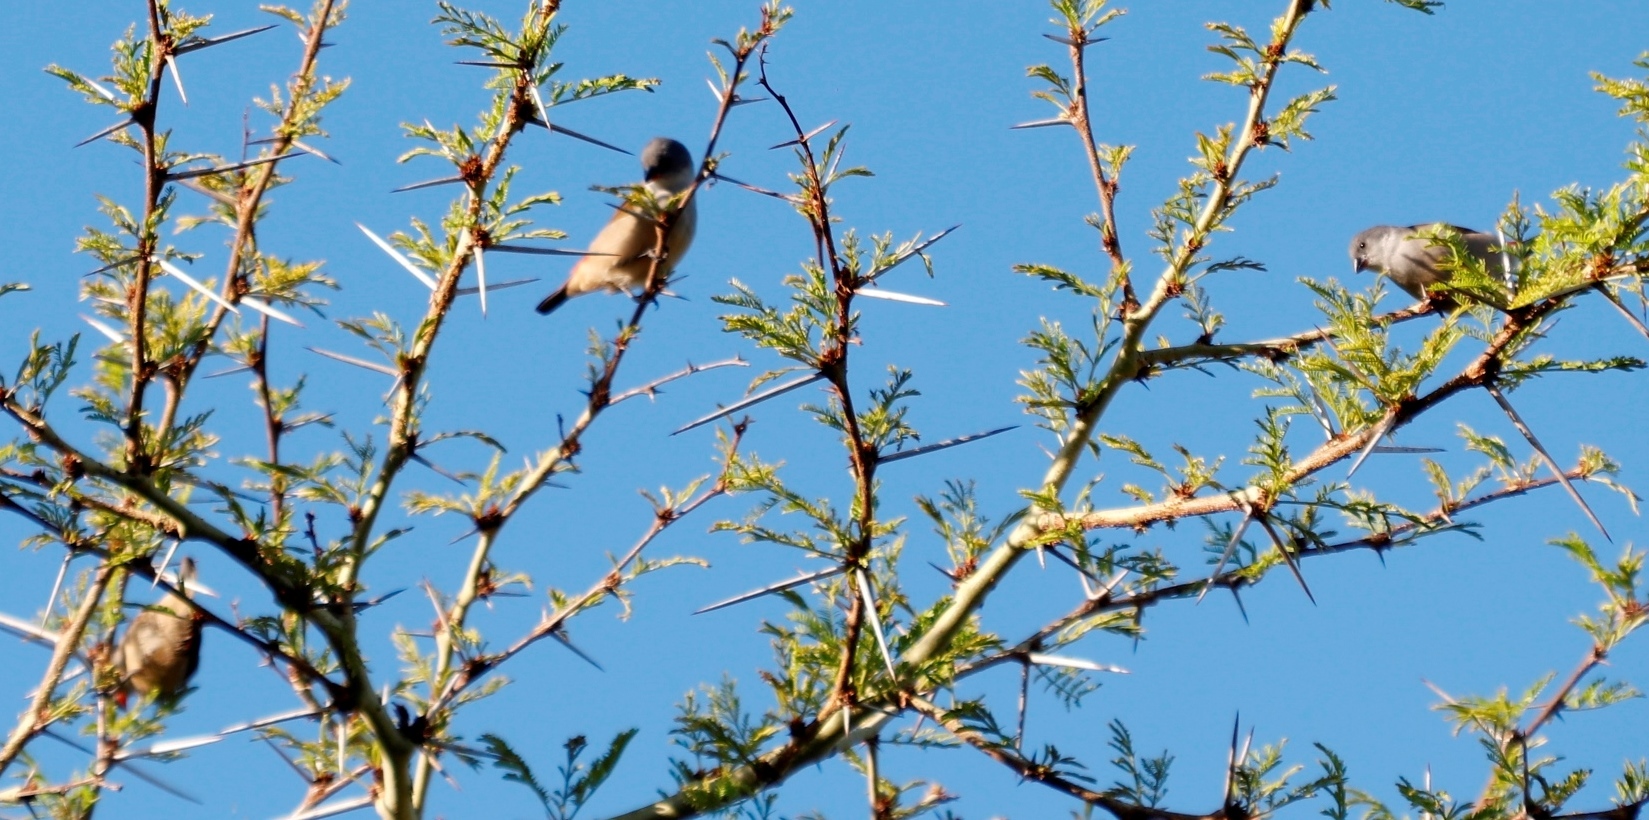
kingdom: Animalia
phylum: Chordata
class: Aves
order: Passeriformes
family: Estrildidae
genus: Coccopygia
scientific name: Coccopygia melanotis
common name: Swee waxbill
